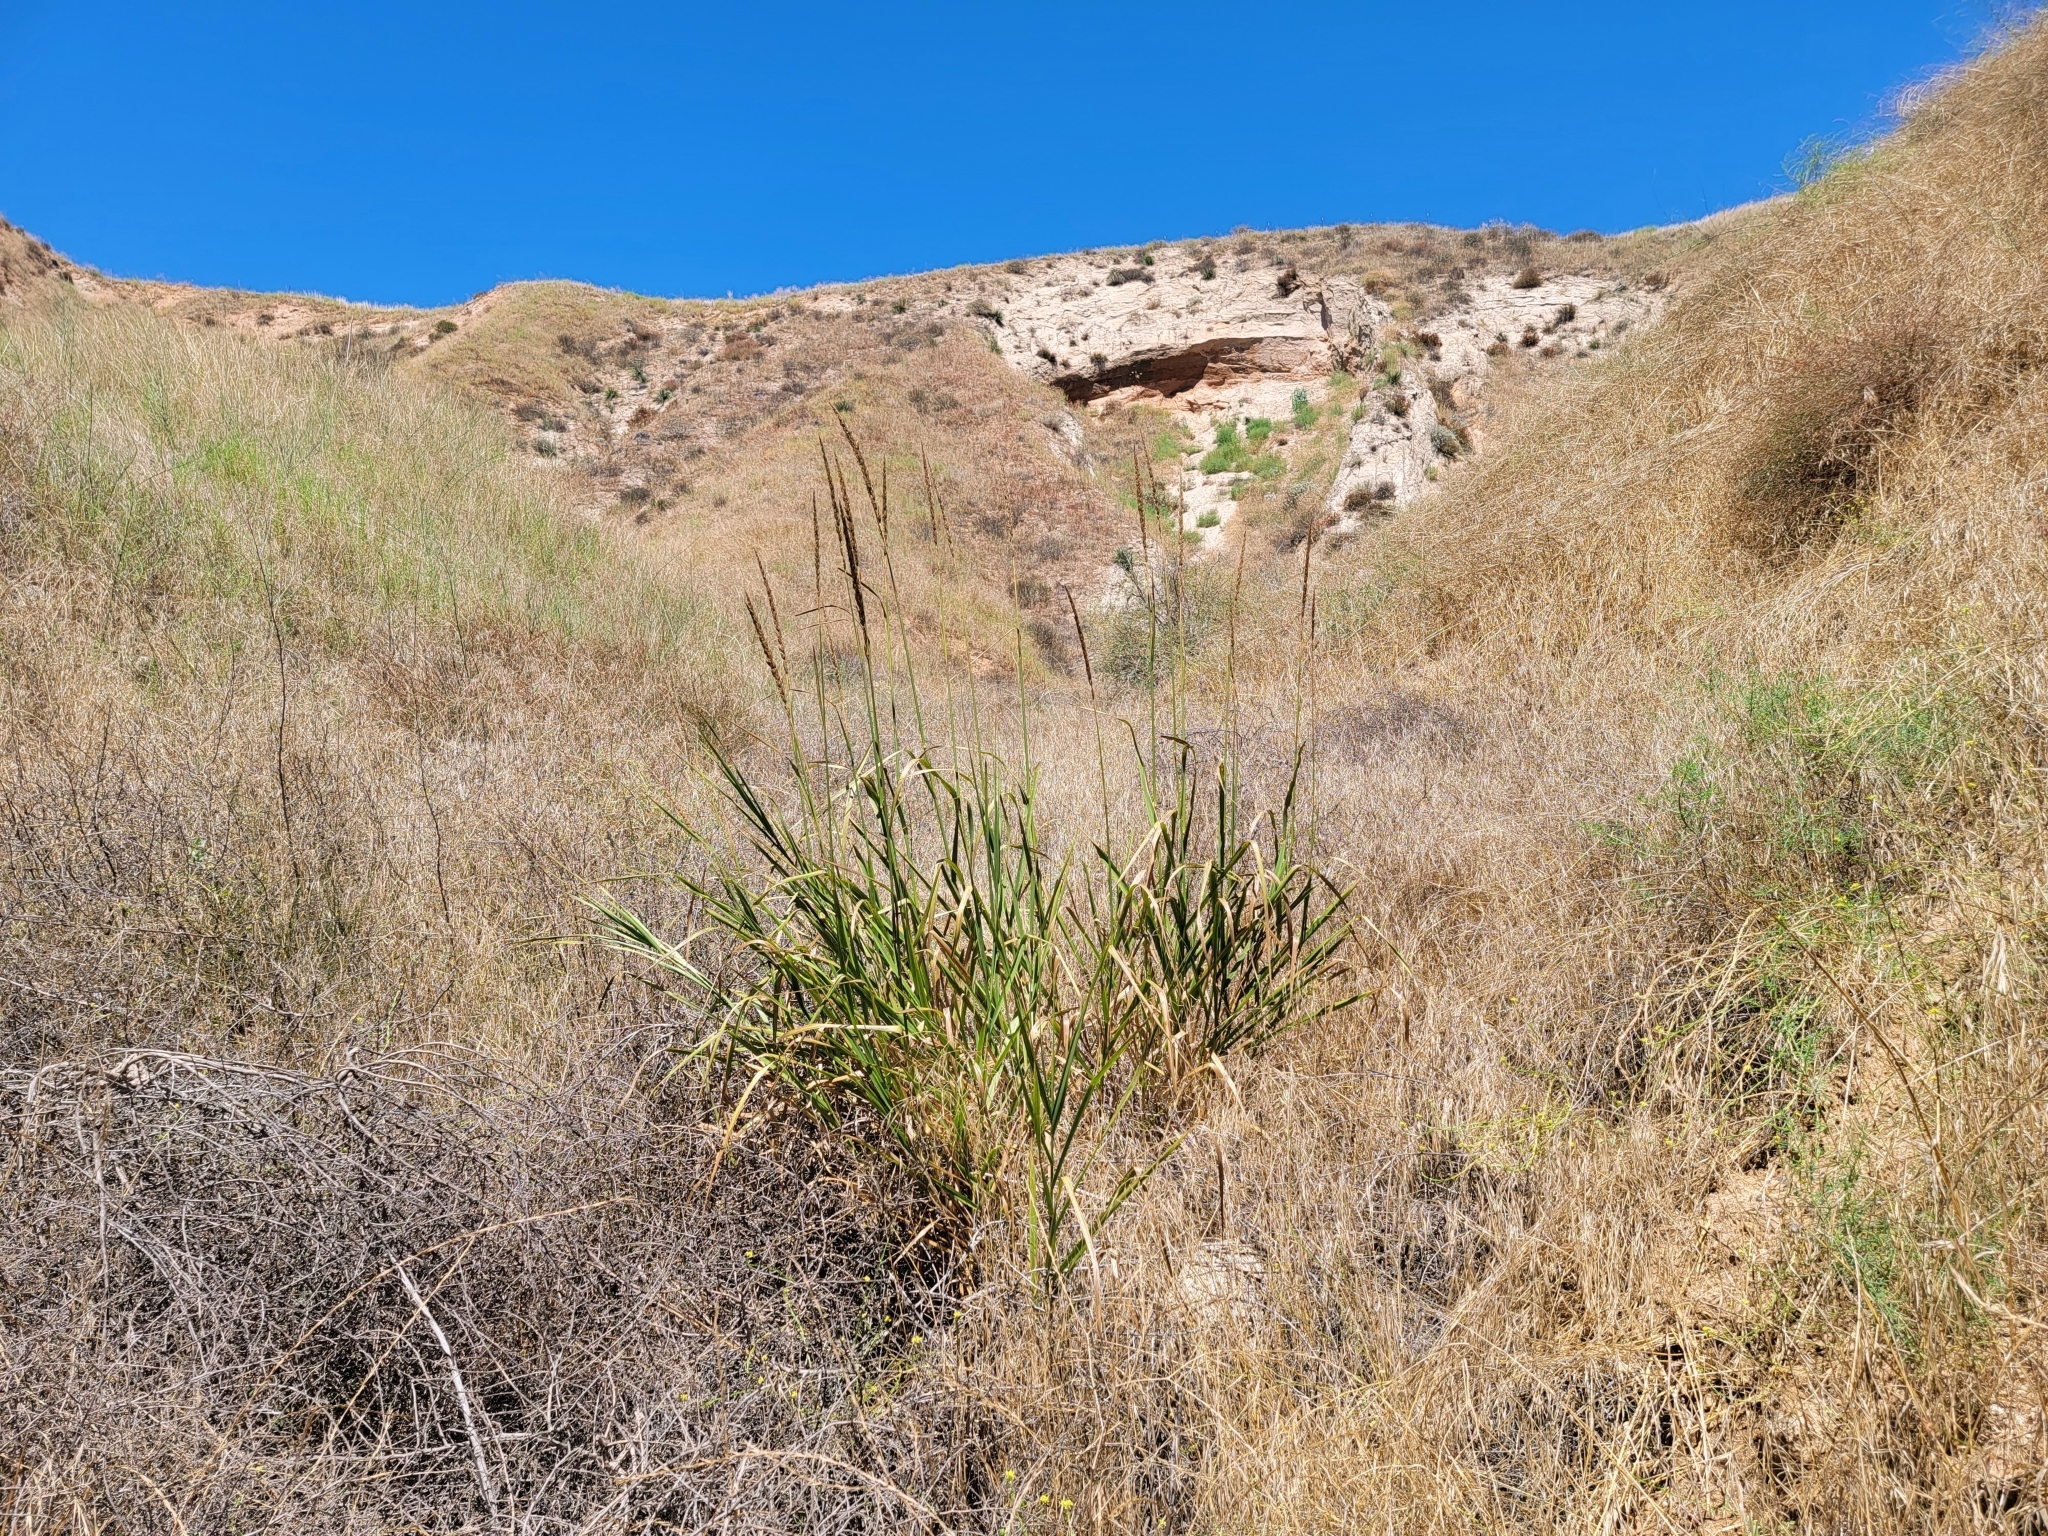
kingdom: Plantae
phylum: Tracheophyta
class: Liliopsida
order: Poales
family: Poaceae
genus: Leymus
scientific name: Leymus condensatus
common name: Giant wild rye
